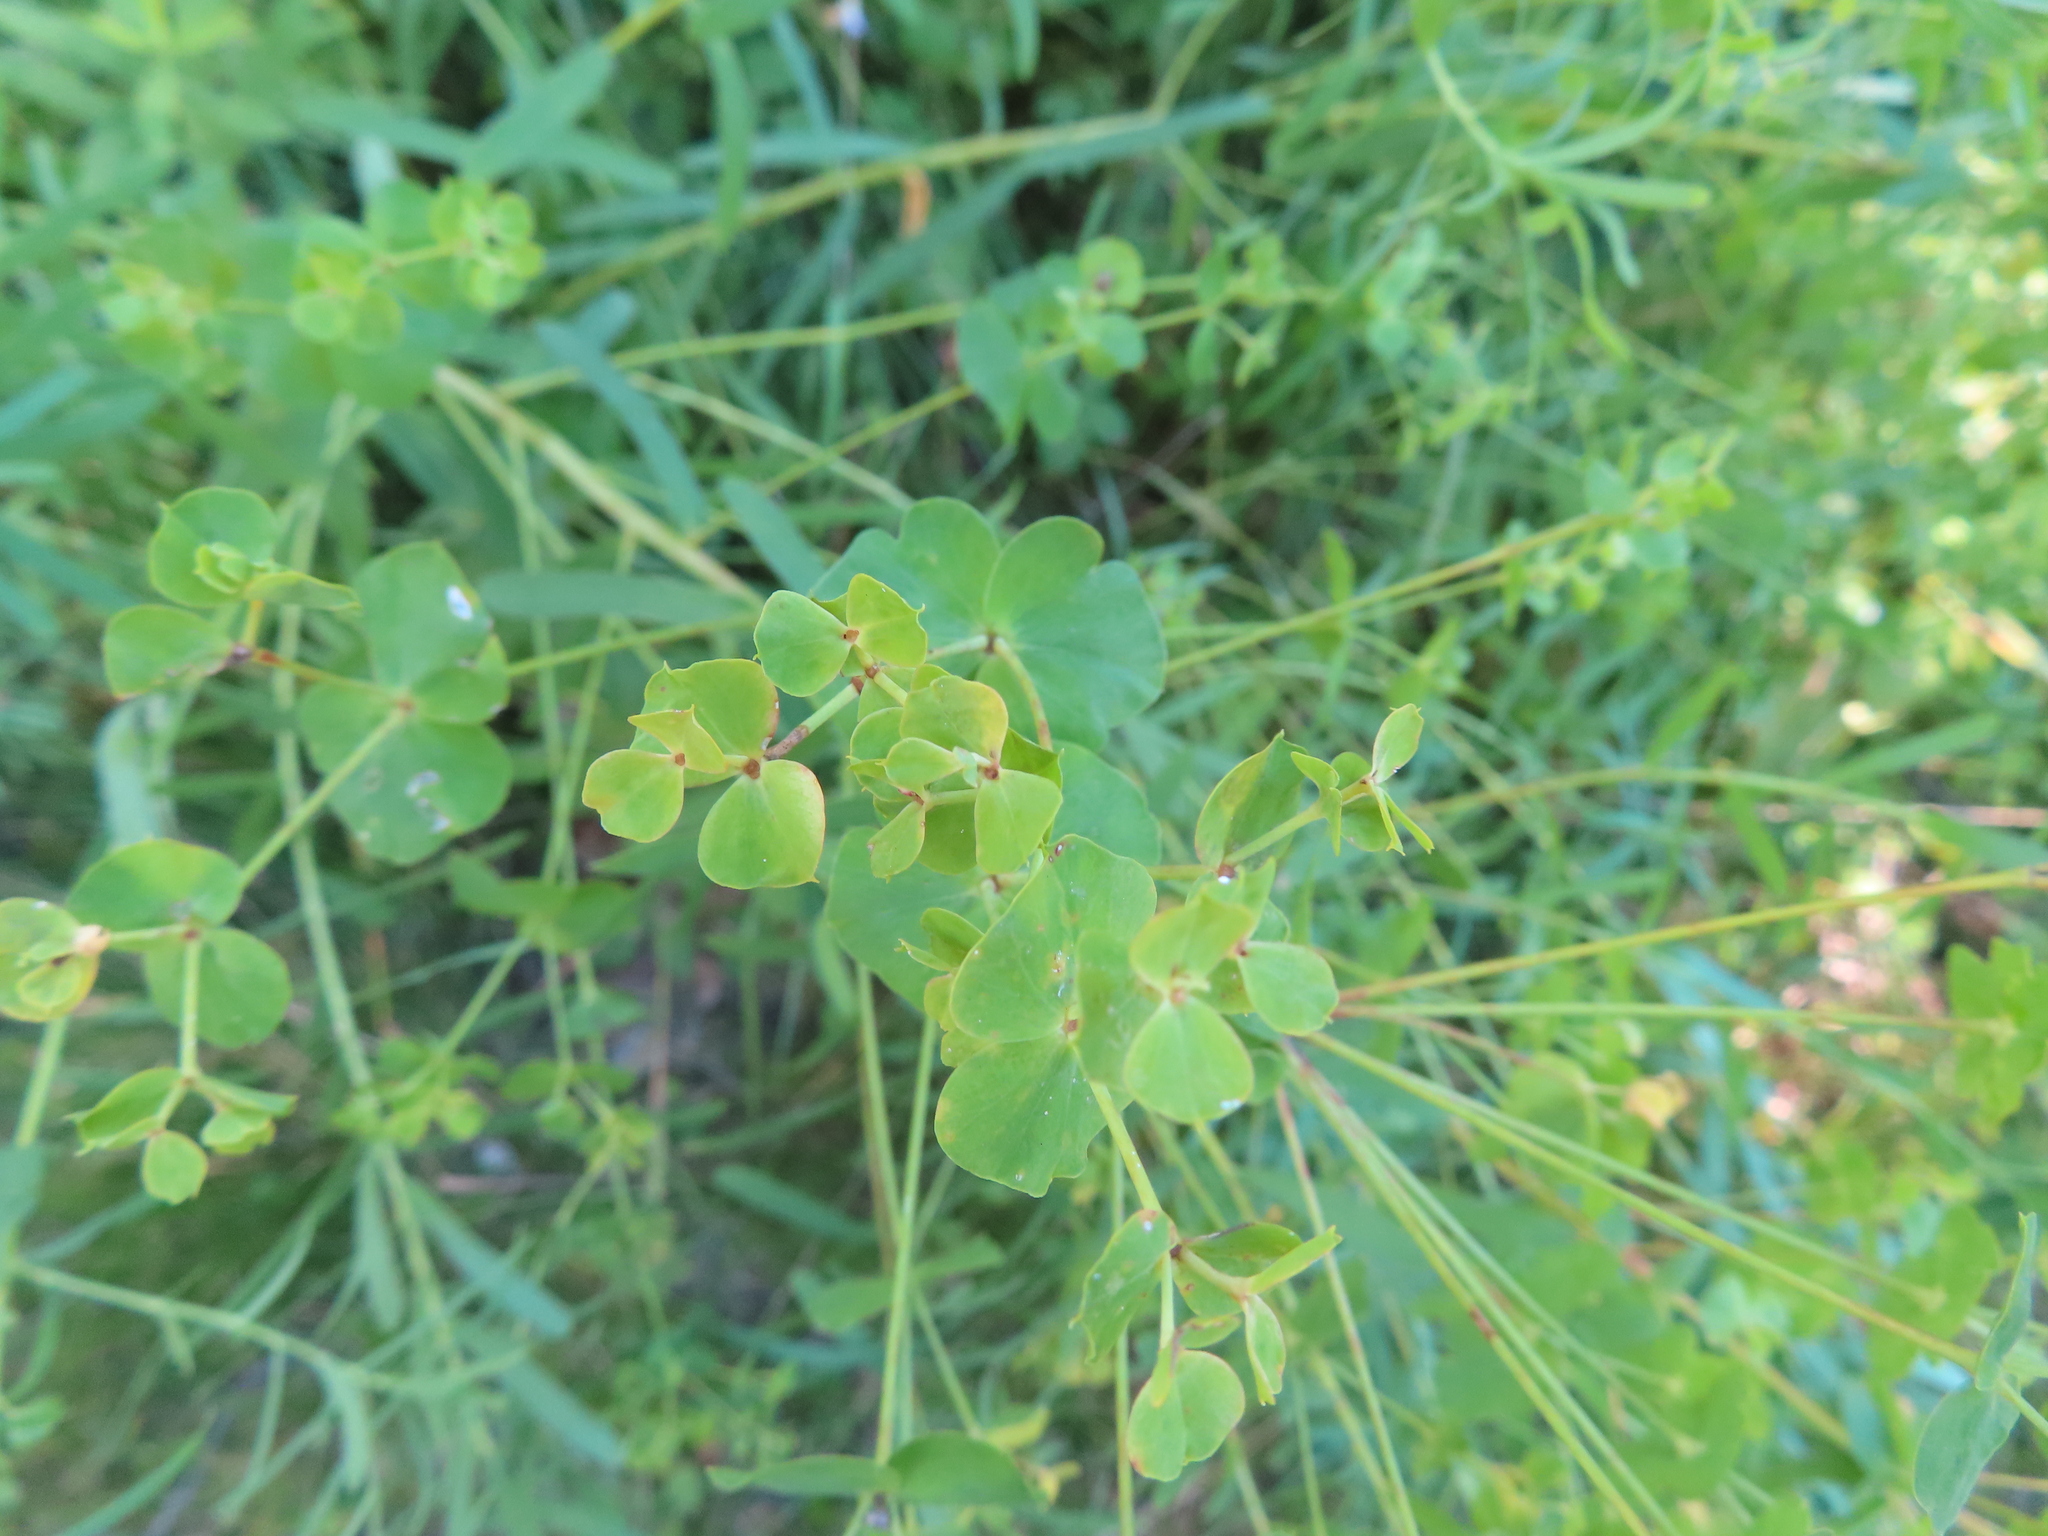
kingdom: Plantae
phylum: Tracheophyta
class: Magnoliopsida
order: Malpighiales
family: Euphorbiaceae
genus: Euphorbia
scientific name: Euphorbia virgata
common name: Leafy spurge
